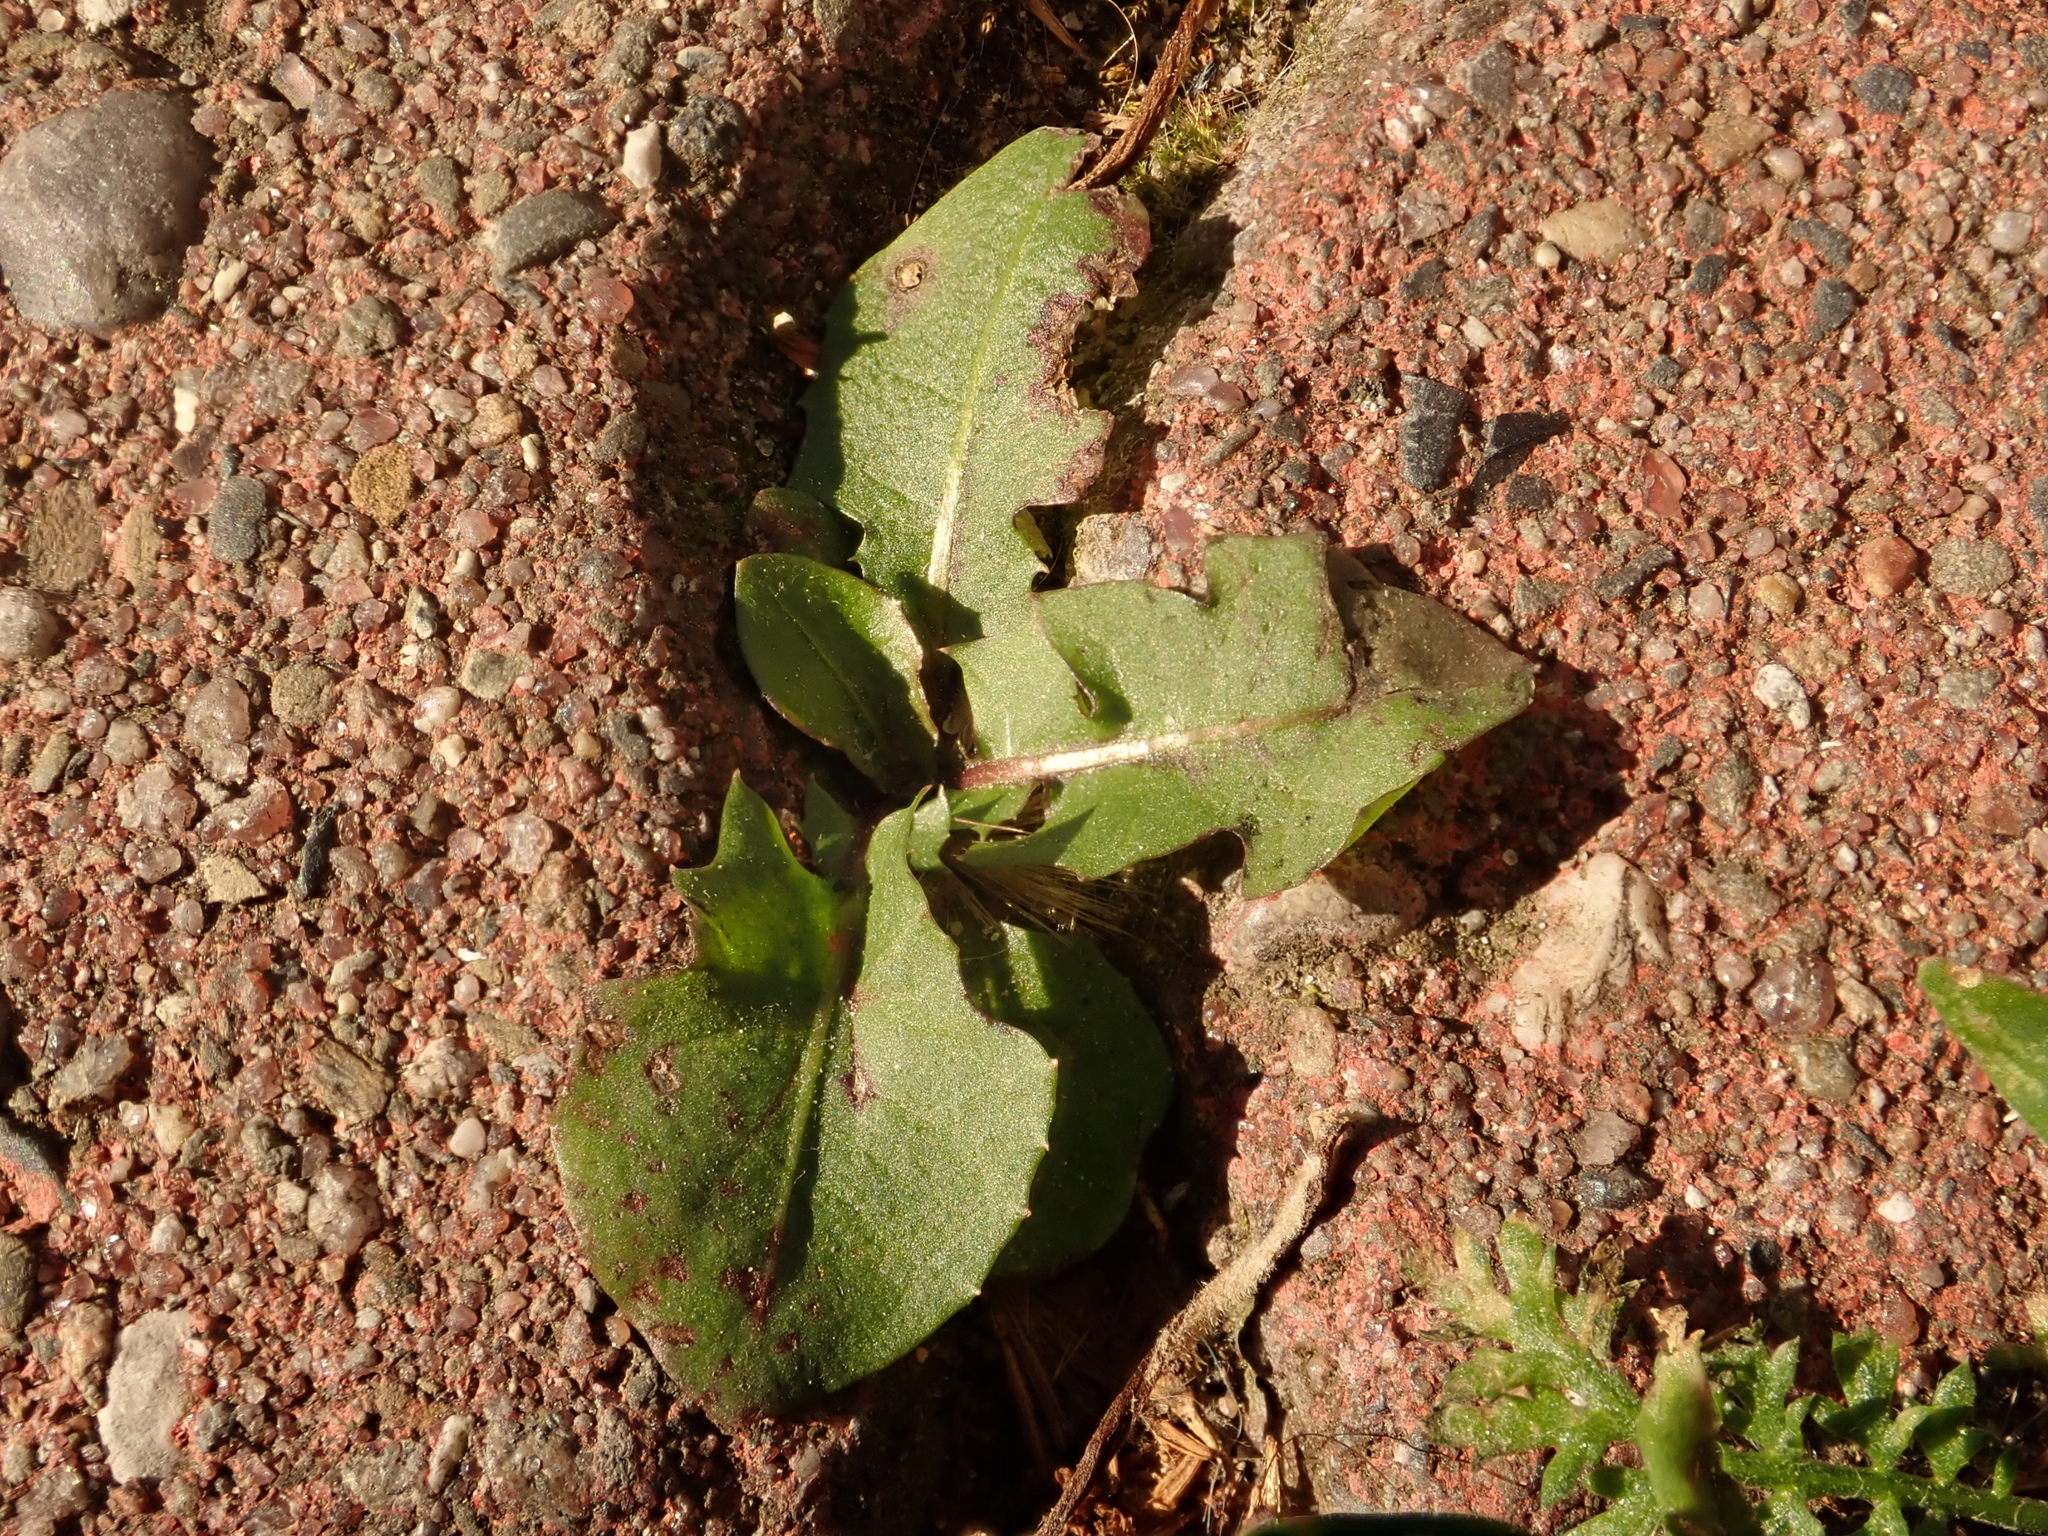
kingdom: Plantae
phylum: Tracheophyta
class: Magnoliopsida
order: Asterales
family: Asteraceae
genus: Taraxacum
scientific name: Taraxacum officinale
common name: Common dandelion
